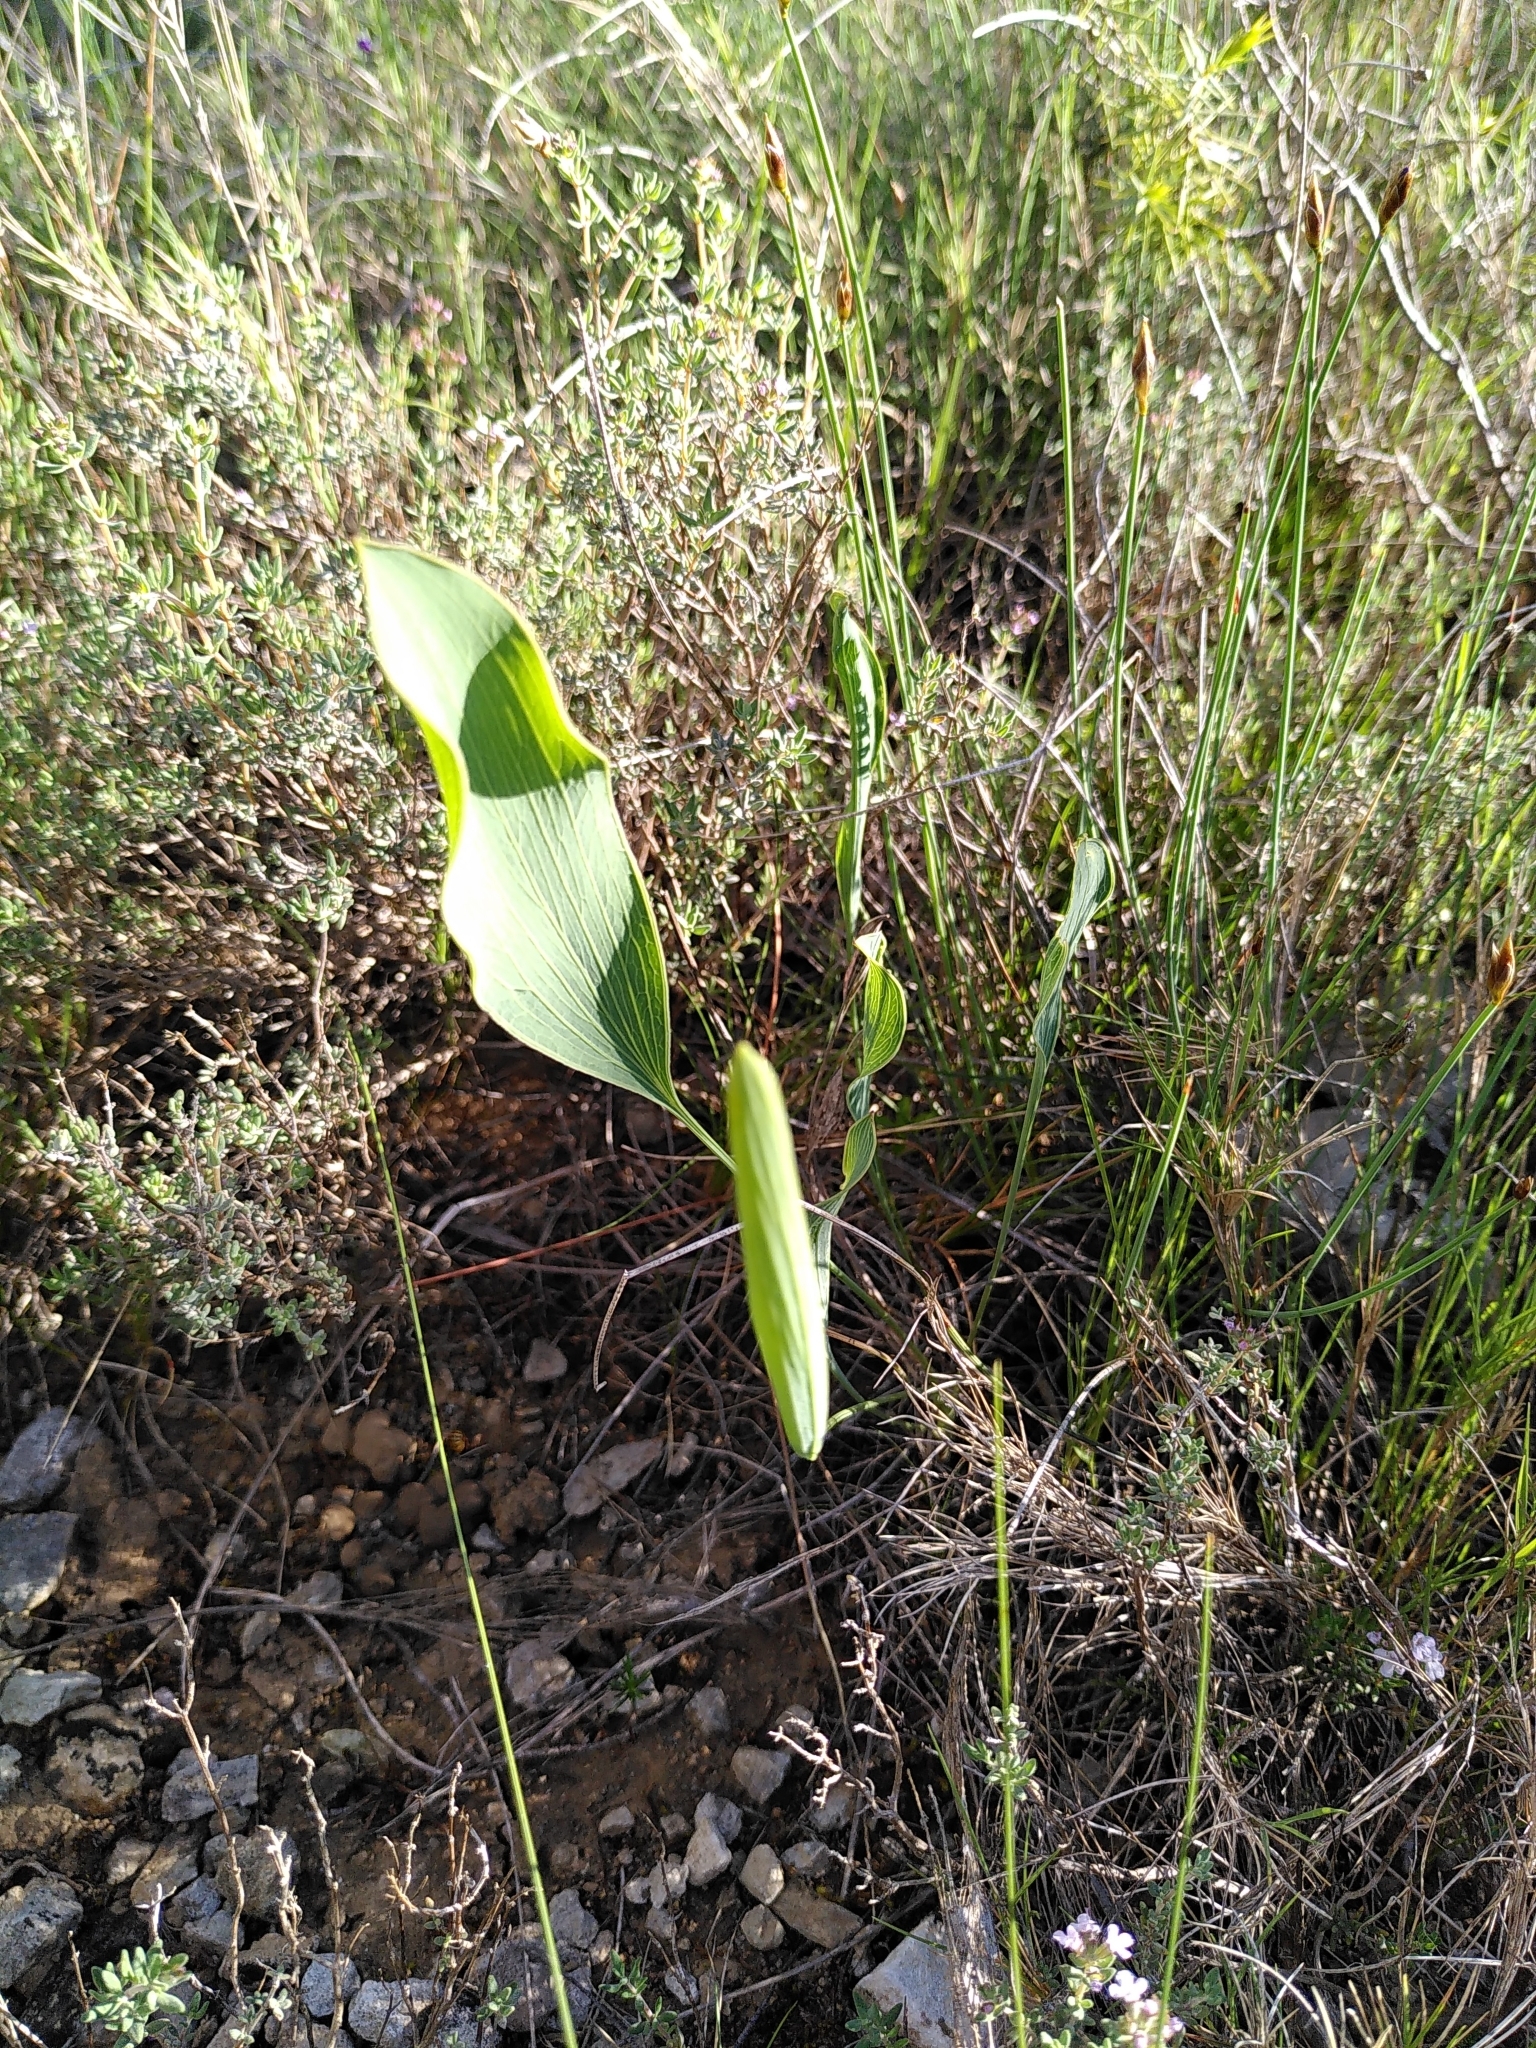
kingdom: Plantae
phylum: Tracheophyta
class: Magnoliopsida
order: Apiales
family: Apiaceae
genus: Bupleurum
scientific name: Bupleurum rigidum
